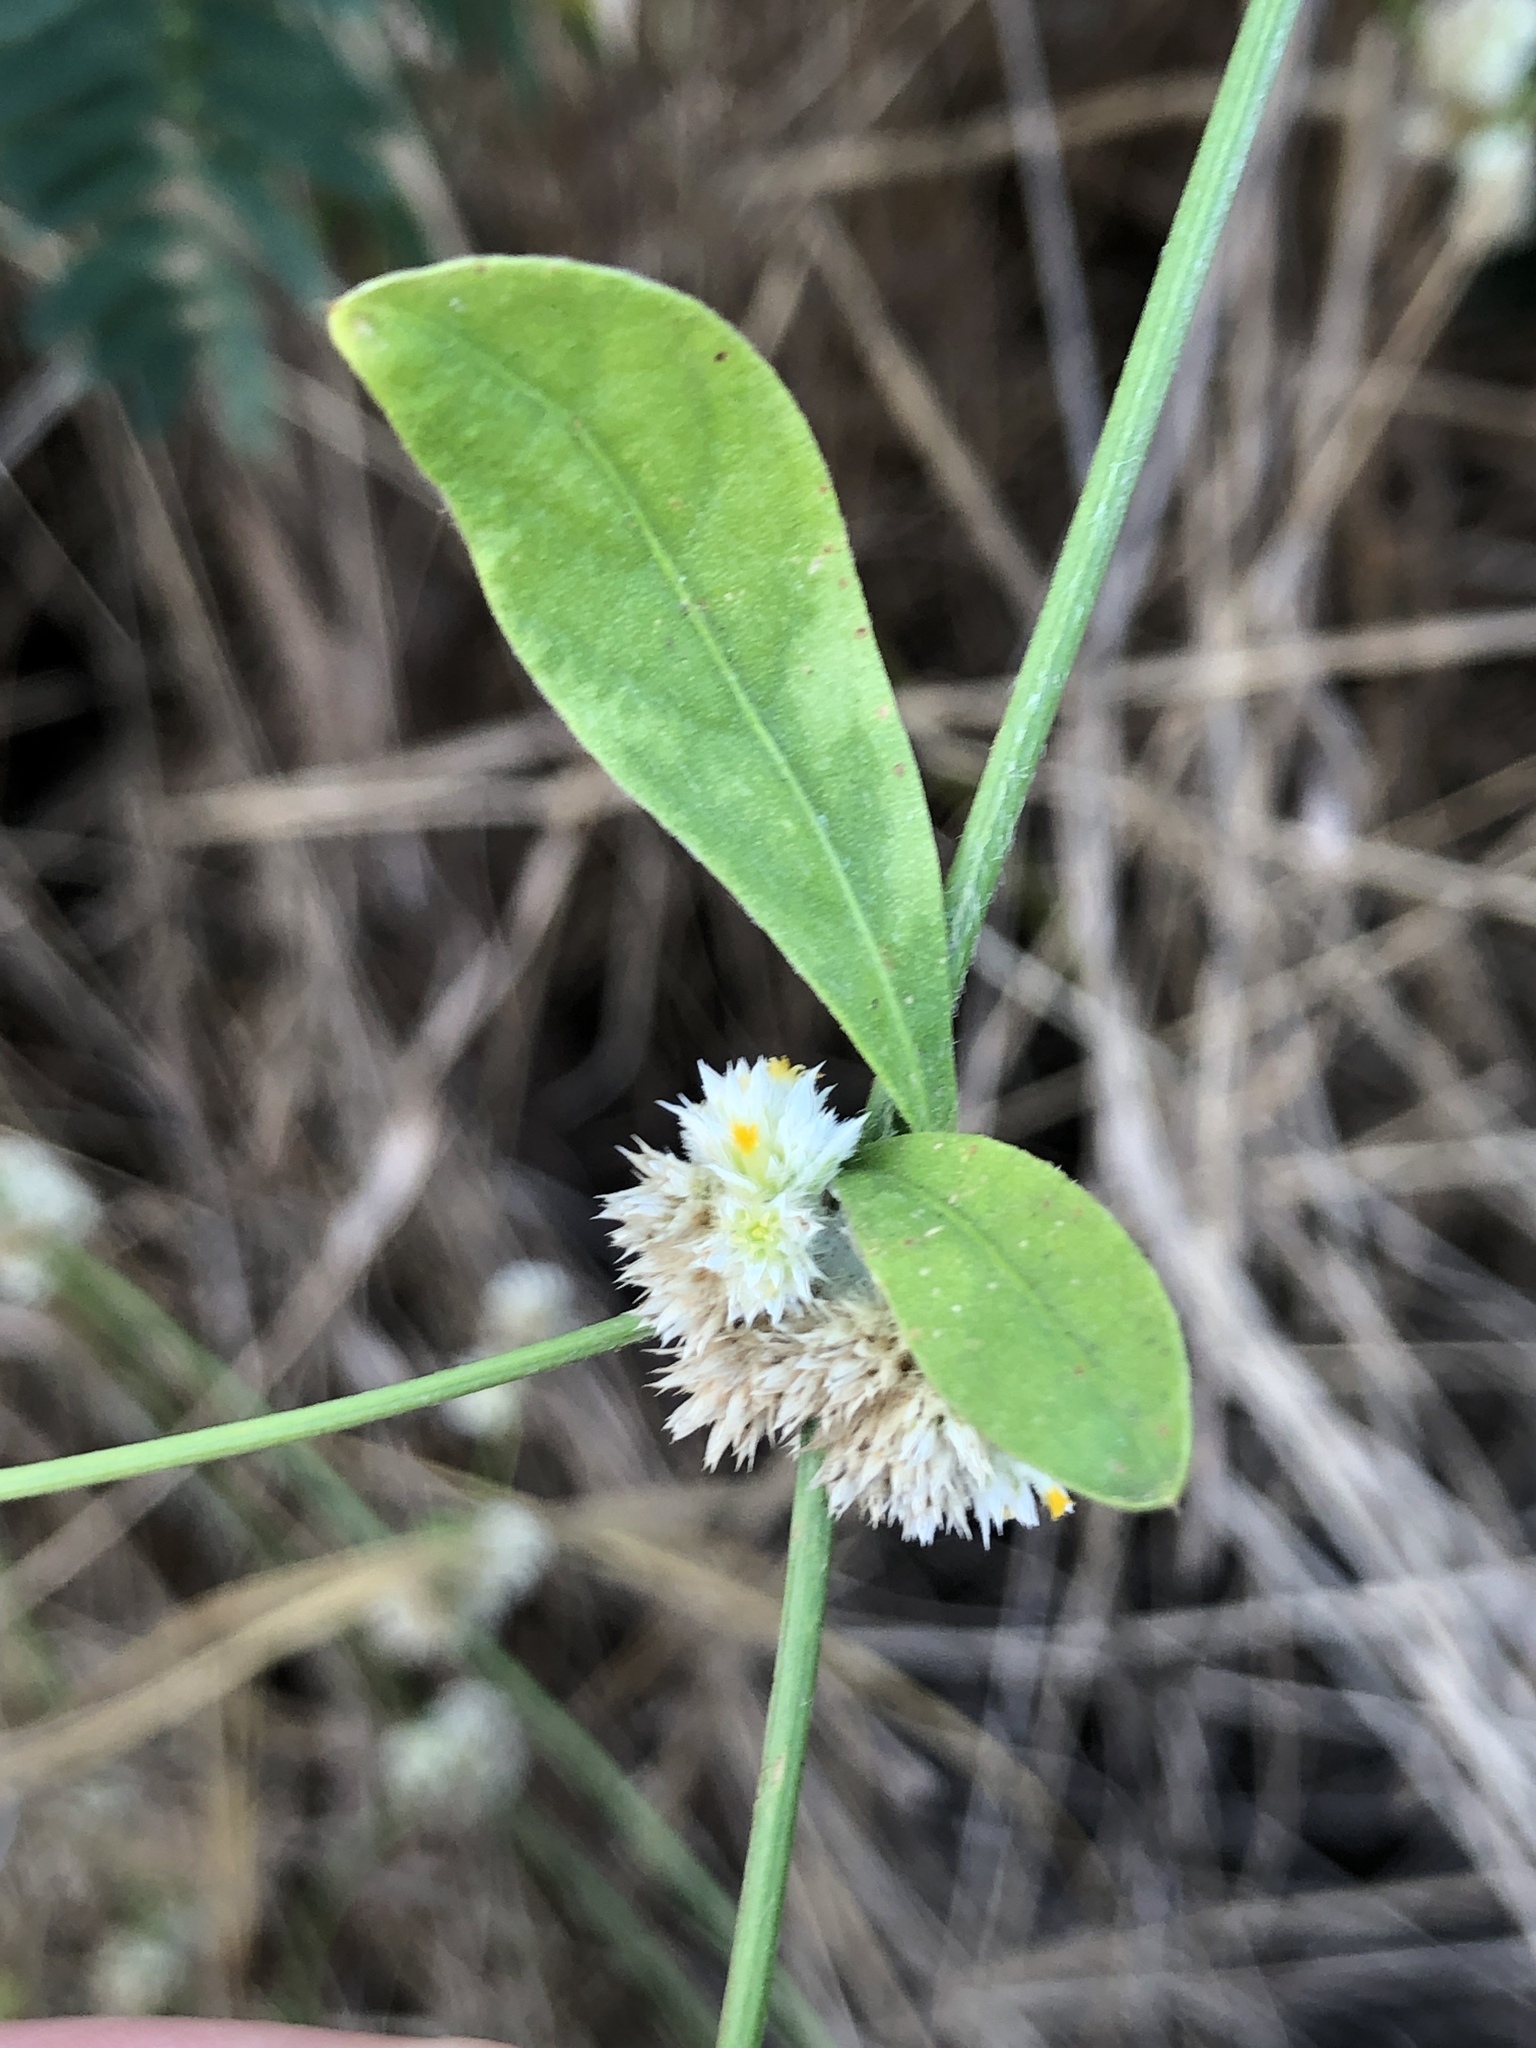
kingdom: Plantae
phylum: Tracheophyta
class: Magnoliopsida
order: Caryophyllales
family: Amaranthaceae
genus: Alternanthera
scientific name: Alternanthera ficoidea
